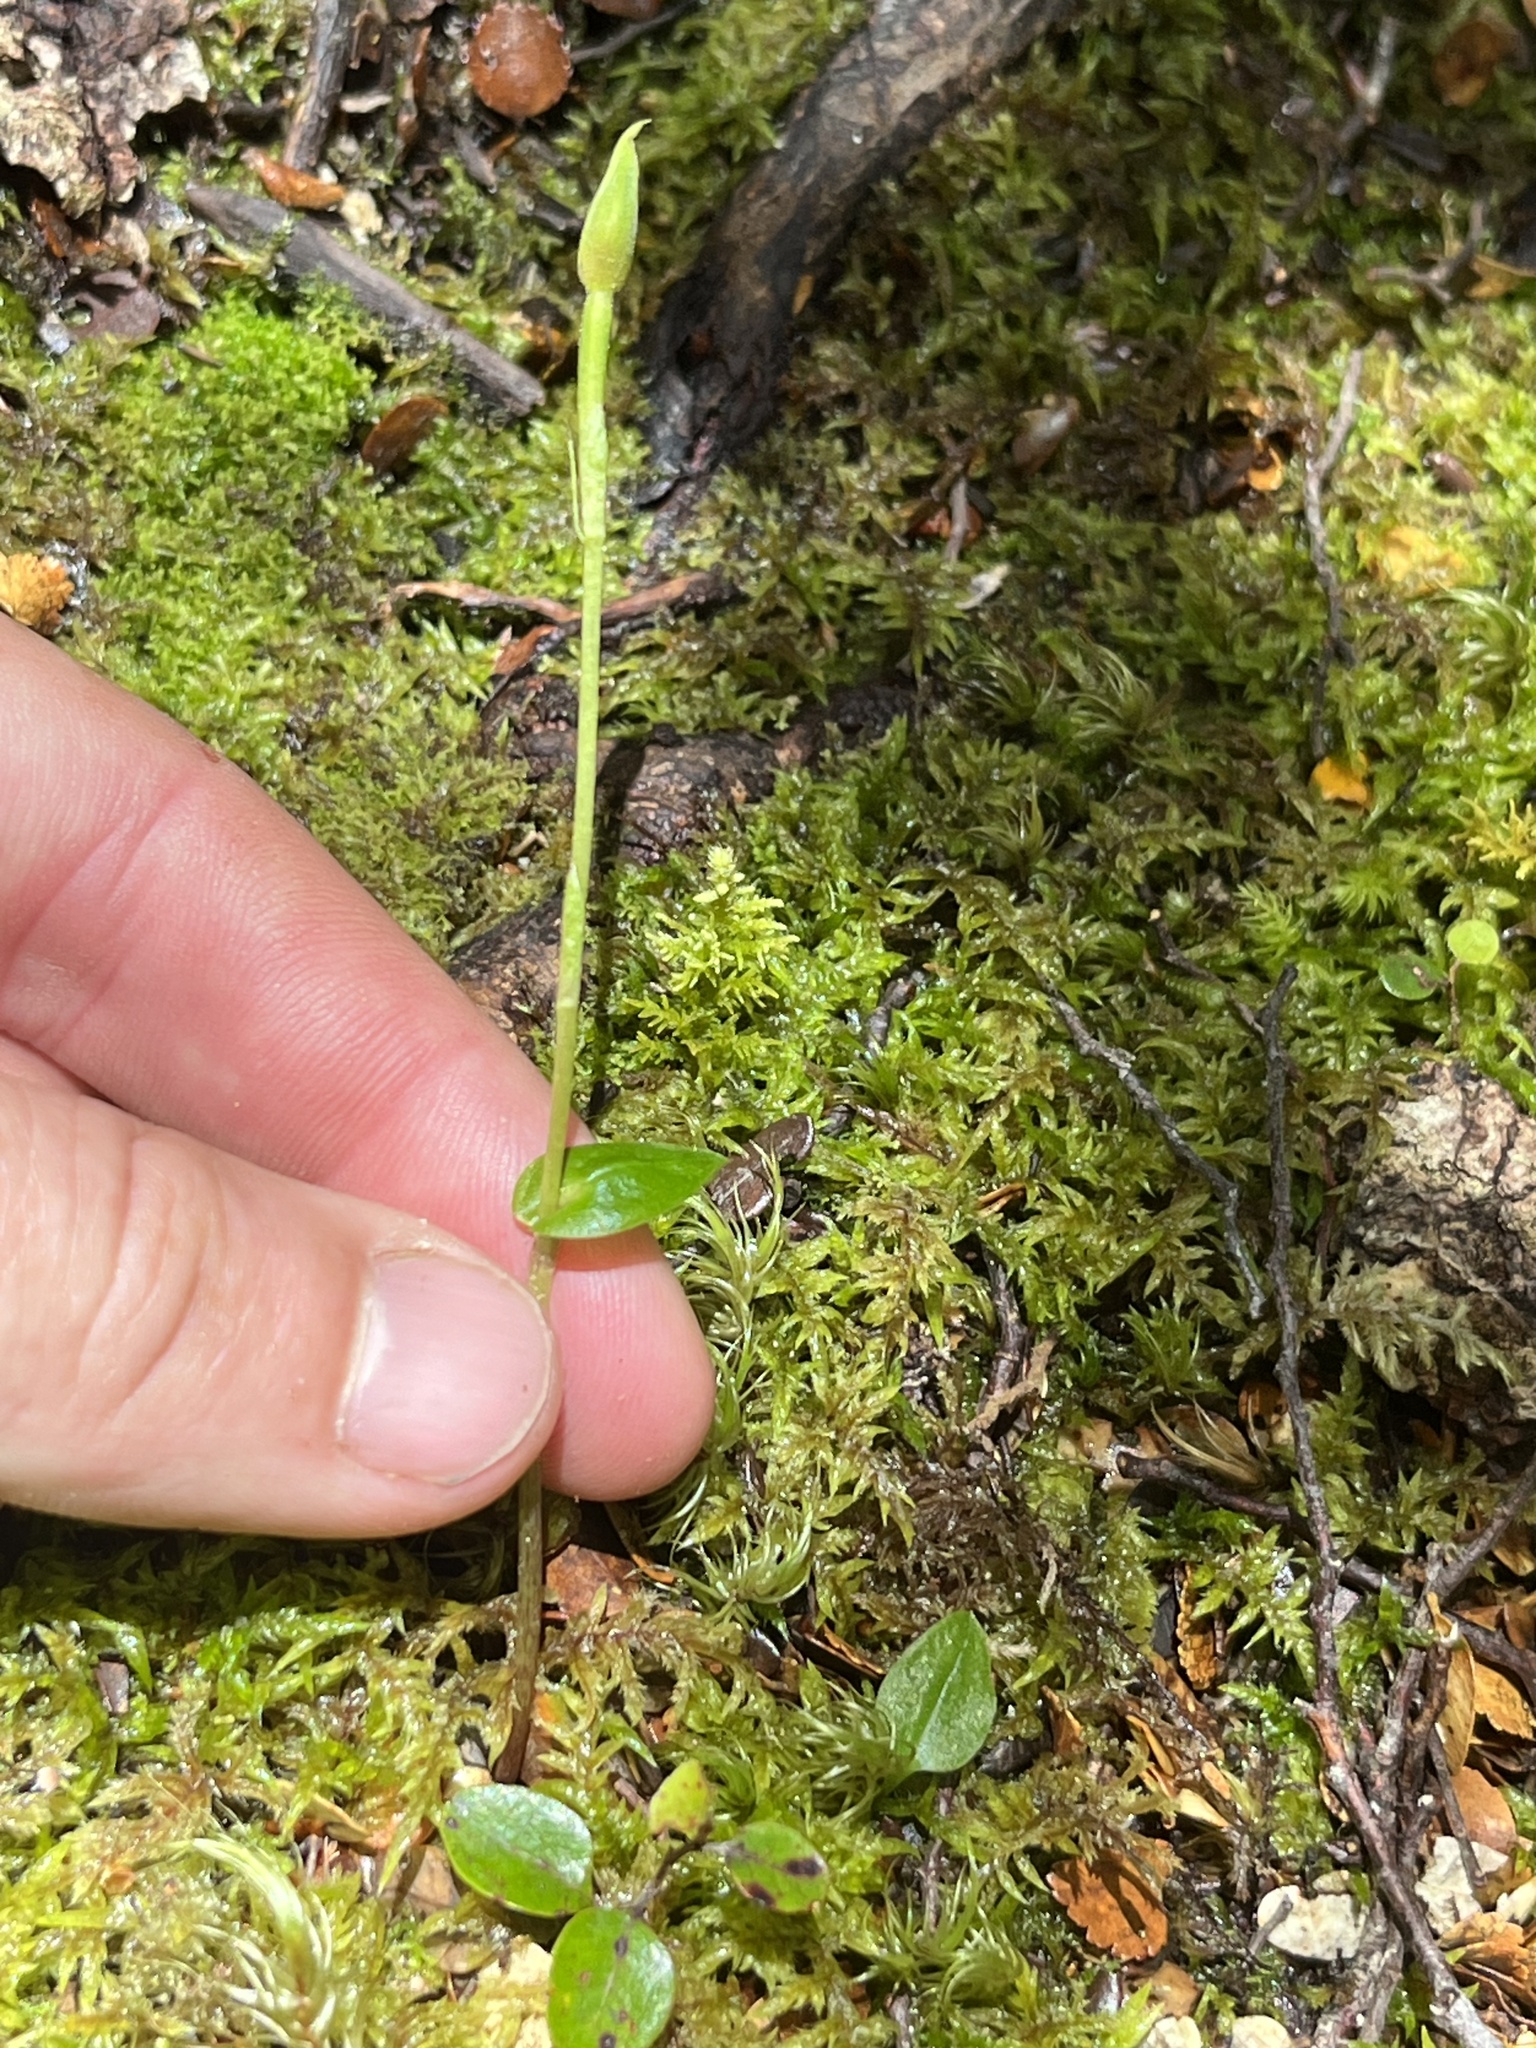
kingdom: Plantae
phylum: Tracheophyta
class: Liliopsida
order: Asparagales
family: Orchidaceae
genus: Adenochilus
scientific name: Adenochilus gracilis
